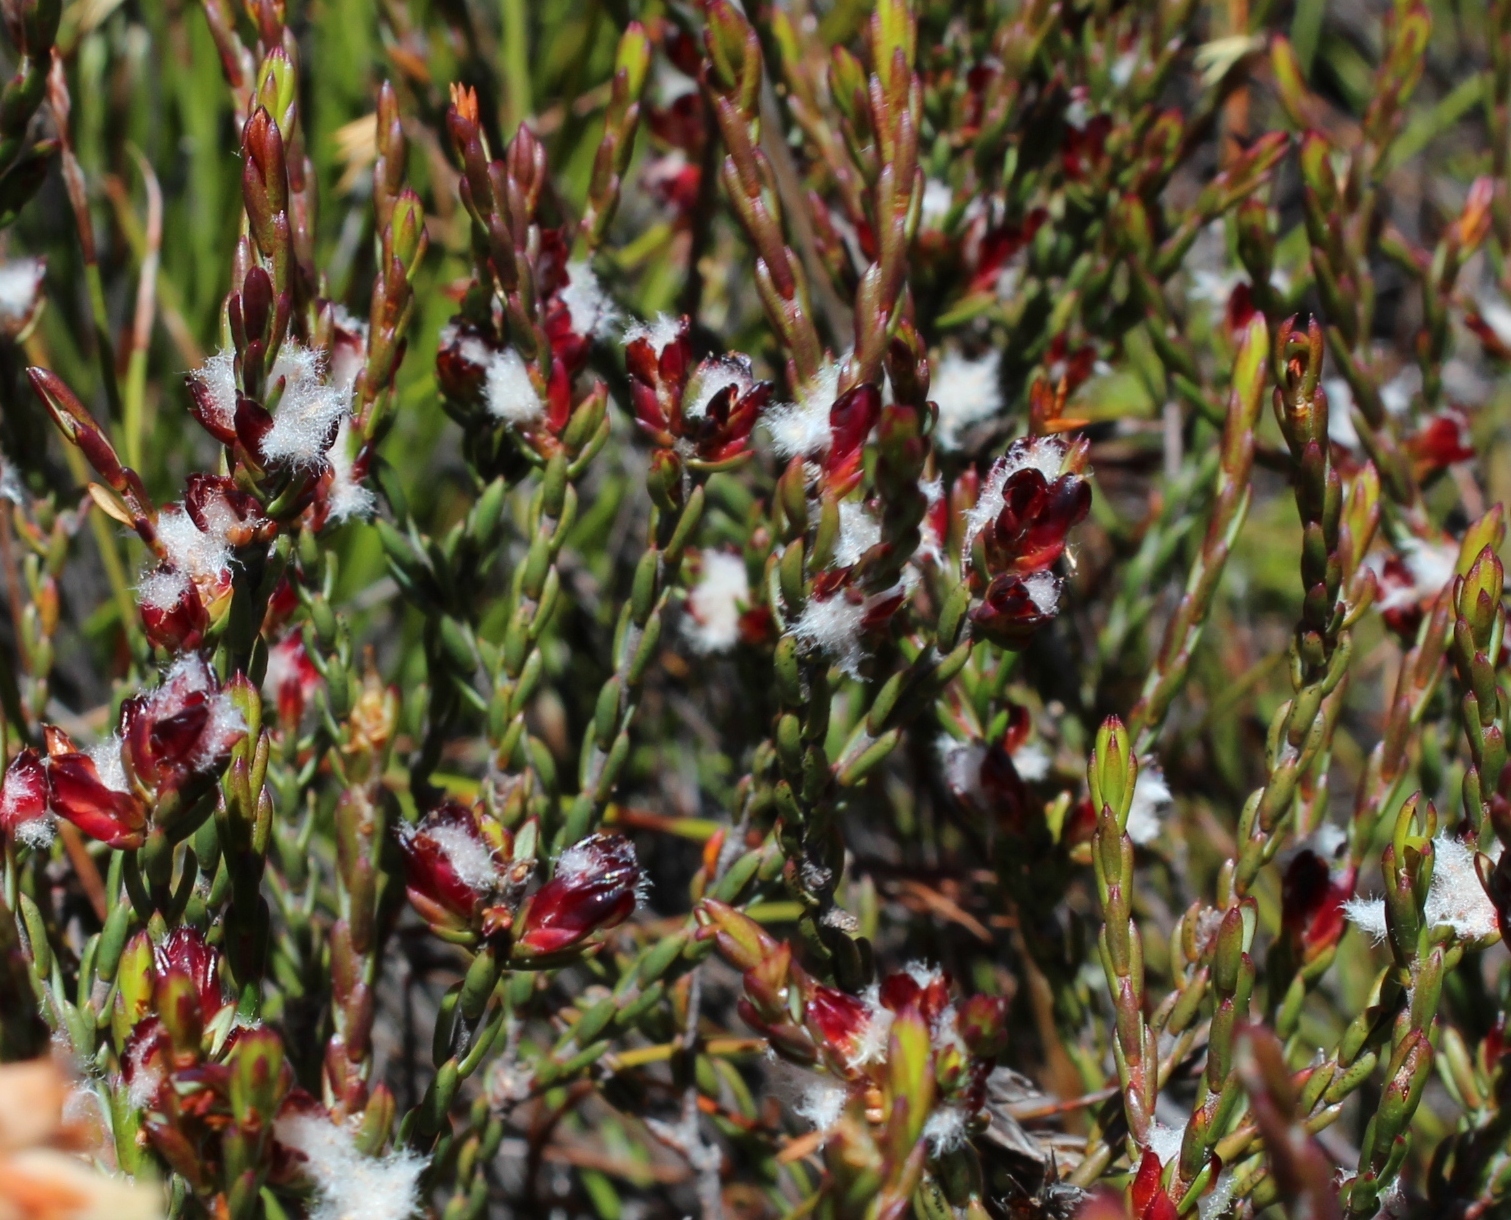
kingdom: Plantae
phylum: Tracheophyta
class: Magnoliopsida
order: Malvales
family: Thymelaeaceae
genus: Lachnaea
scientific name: Lachnaea montana
